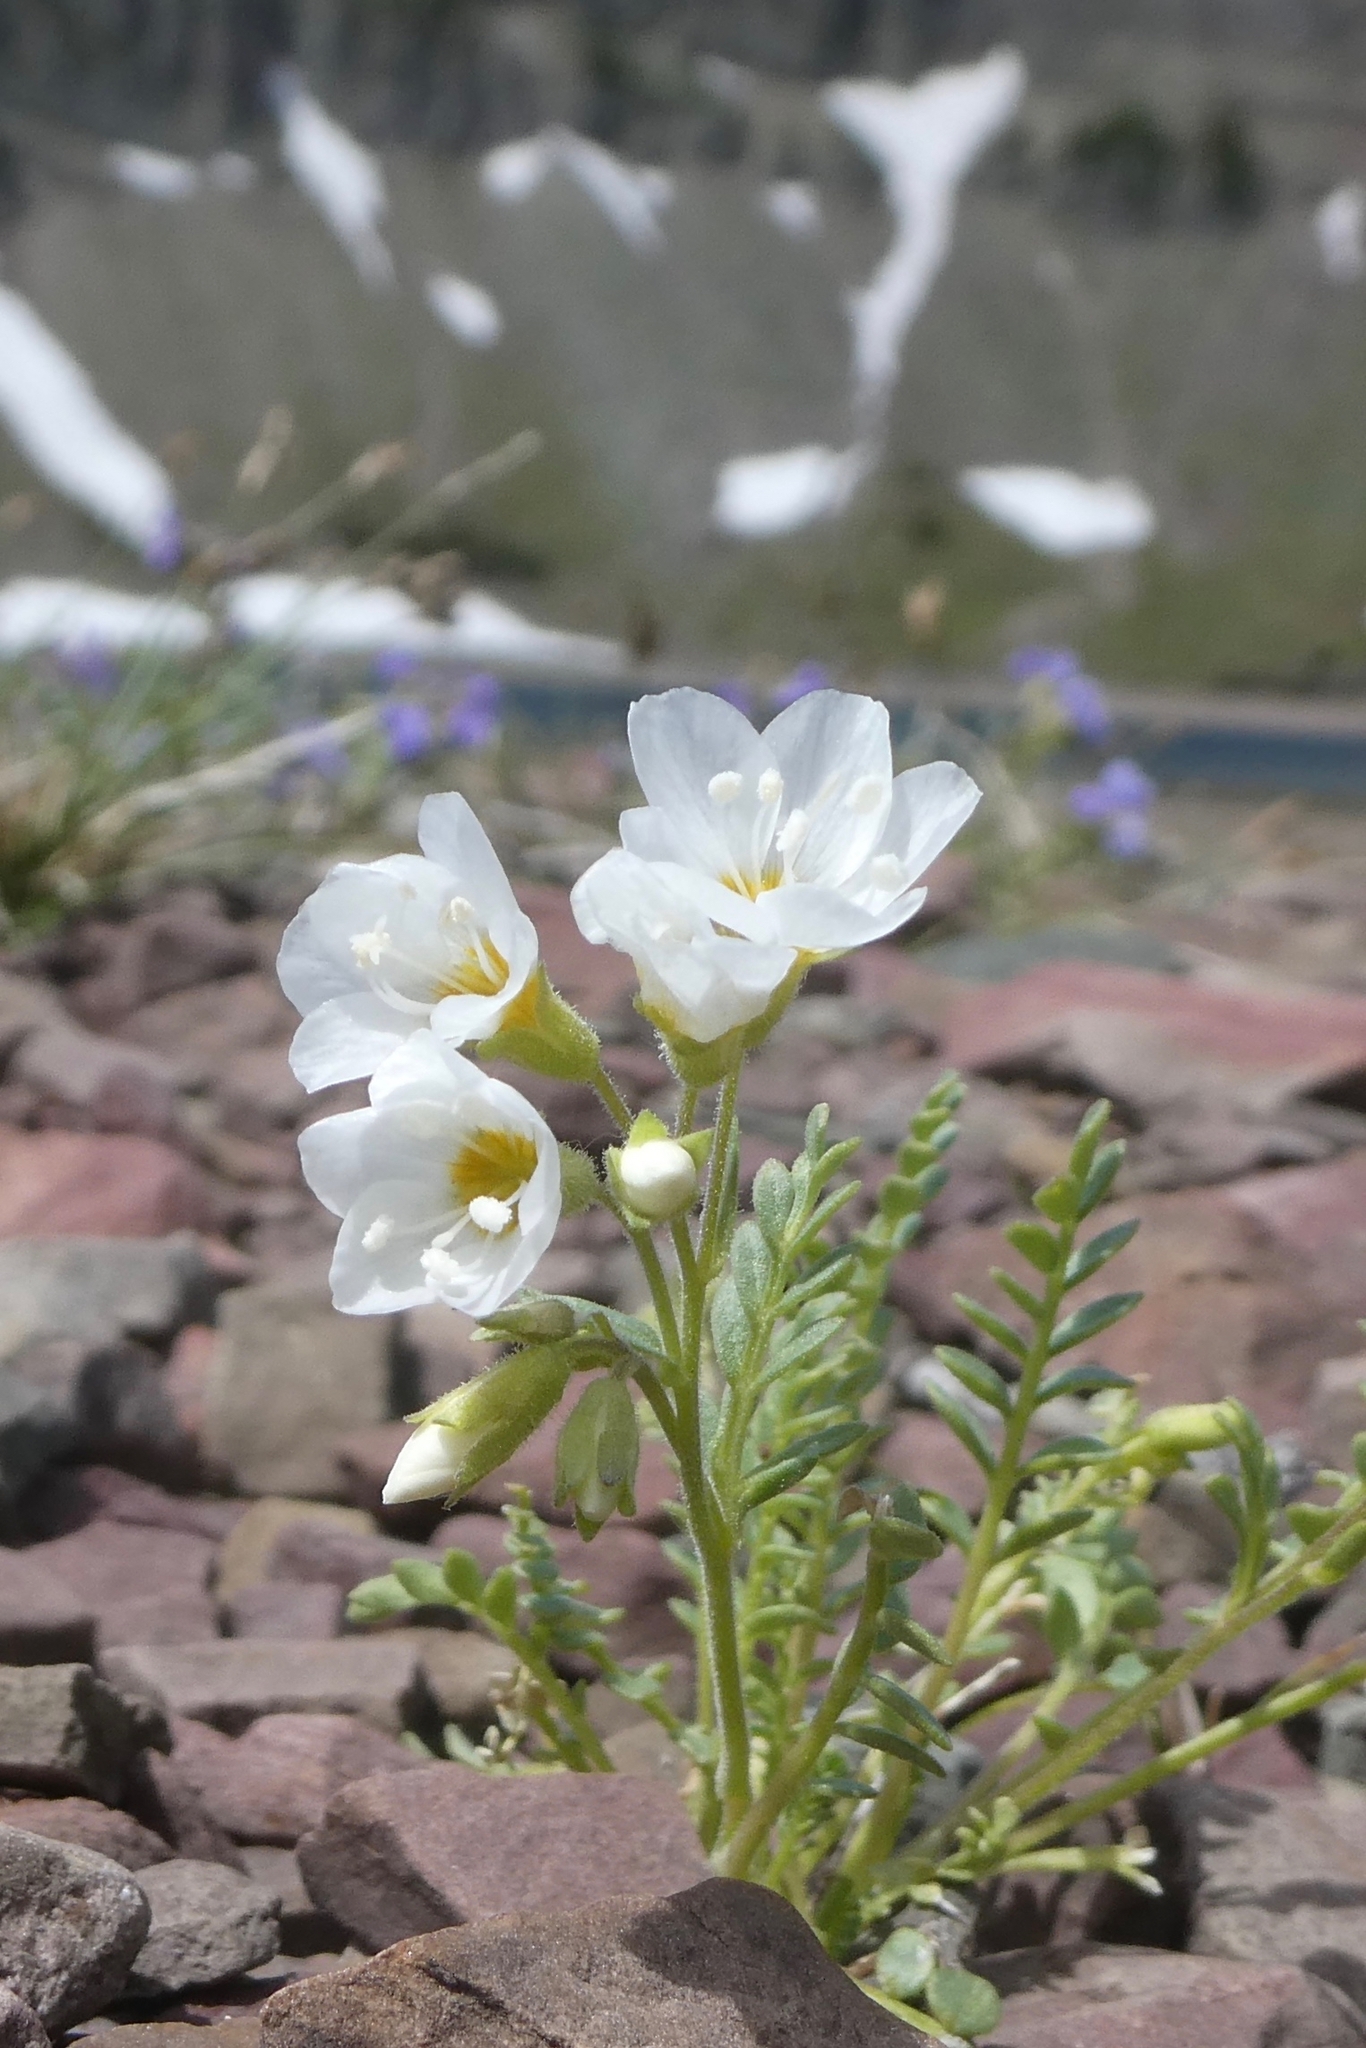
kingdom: Plantae
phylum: Tracheophyta
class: Magnoliopsida
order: Ericales
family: Polemoniaceae
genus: Polemonium
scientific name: Polemonium pulcherrimum
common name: Short jacob's-ladder
